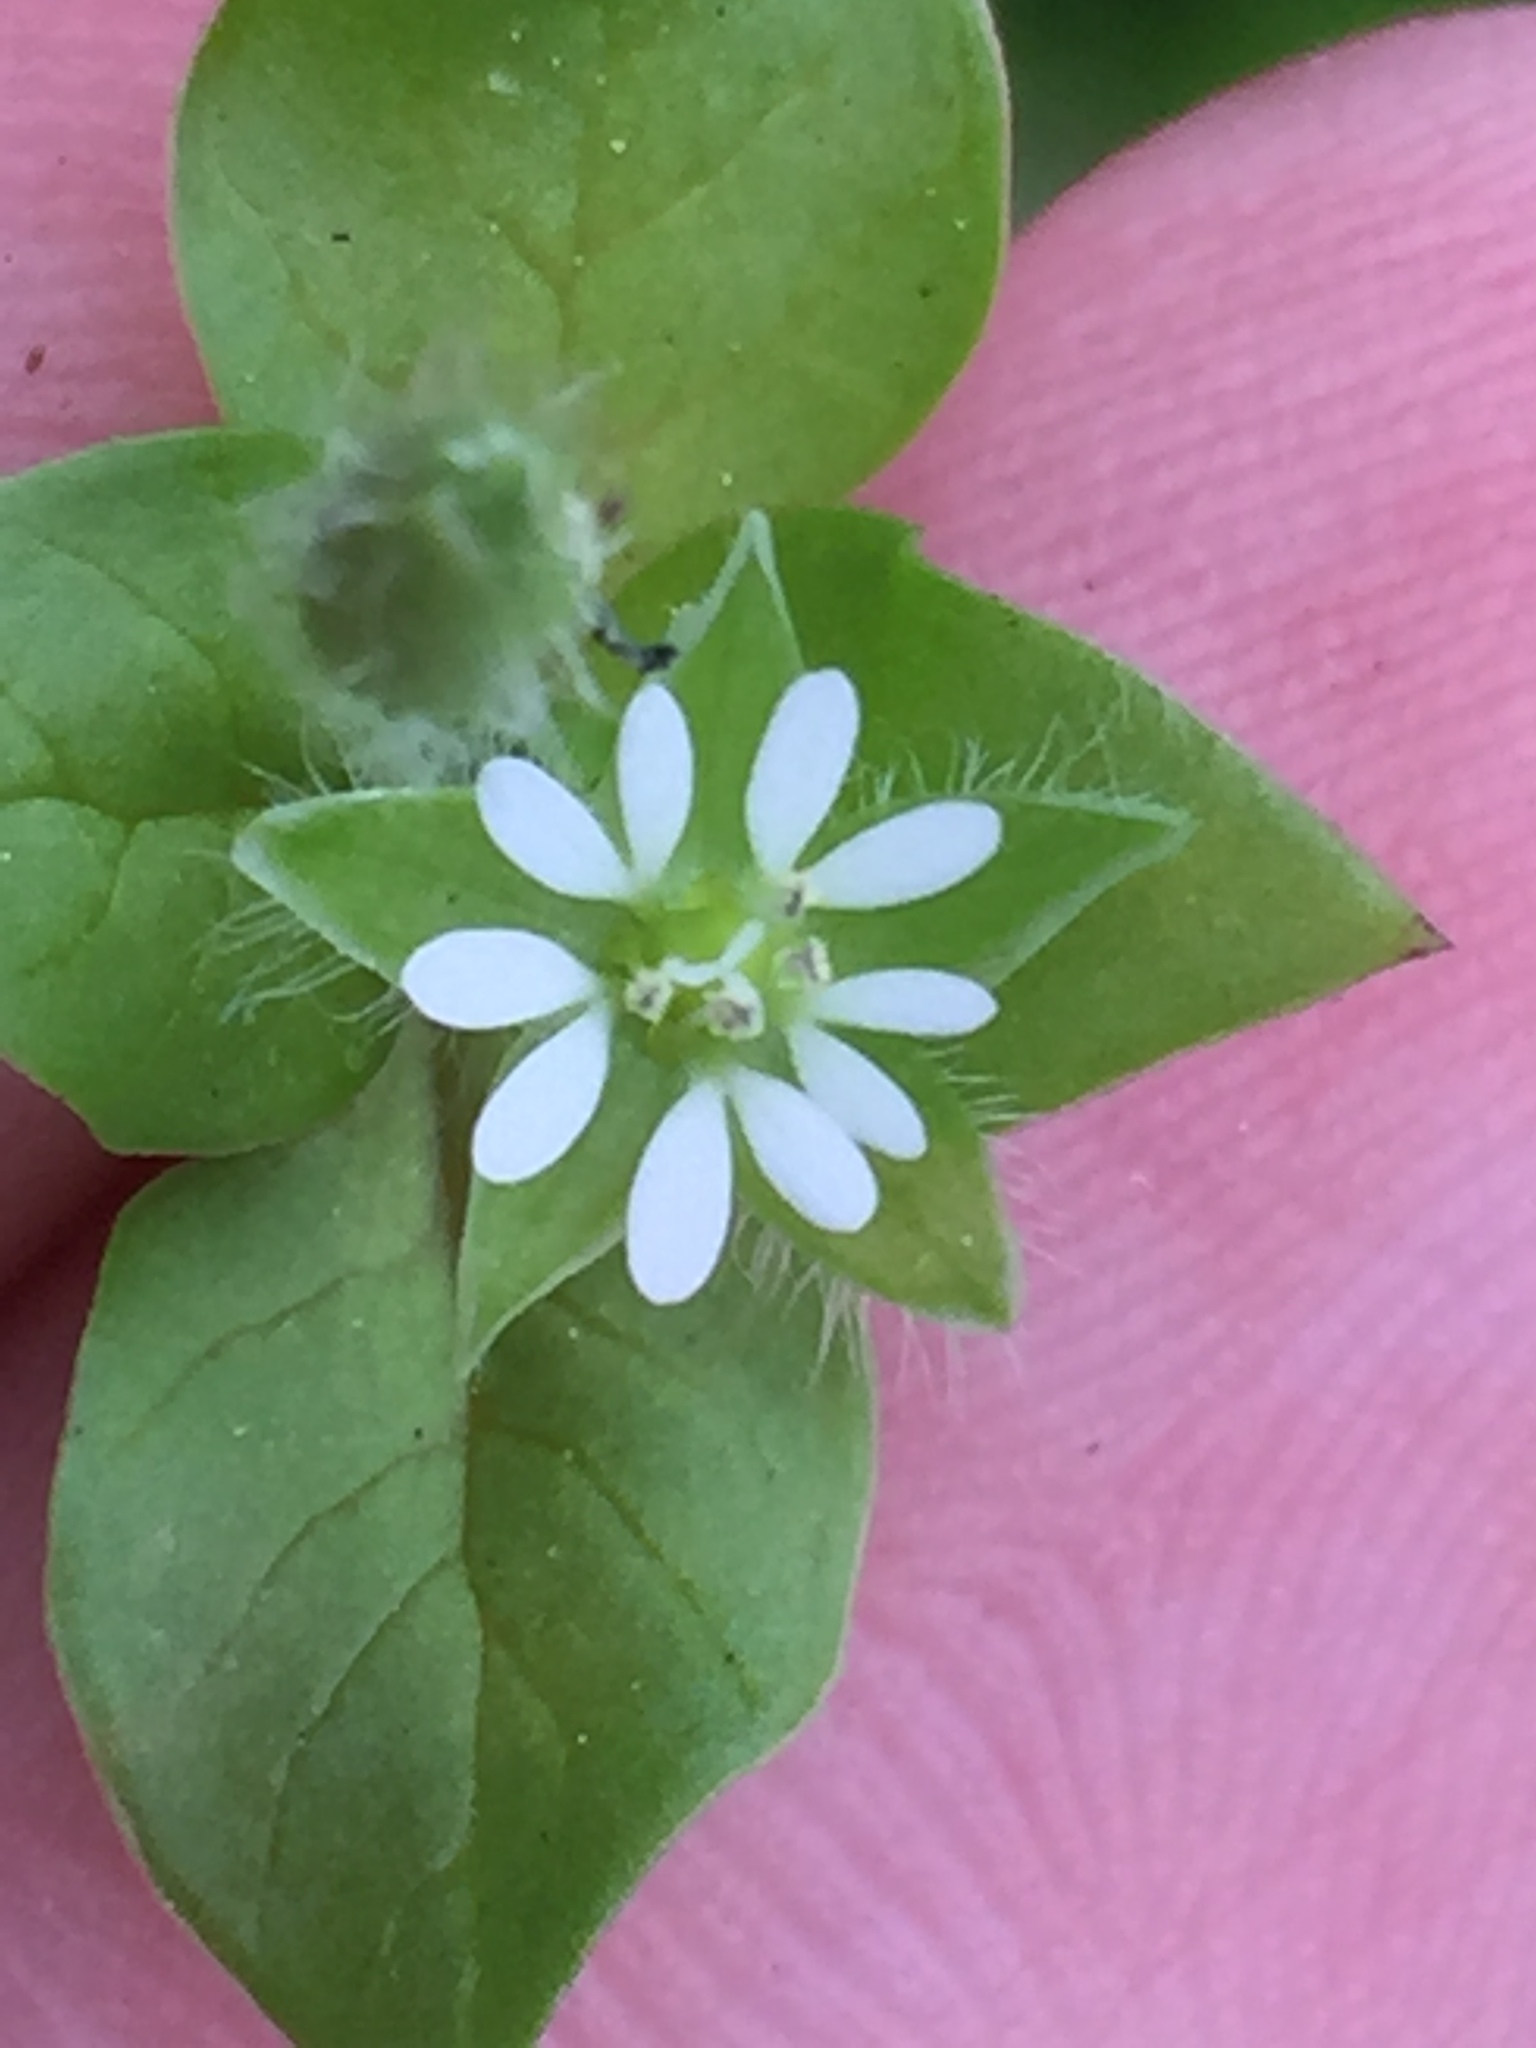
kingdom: Plantae
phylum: Tracheophyta
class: Magnoliopsida
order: Caryophyllales
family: Caryophyllaceae
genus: Stellaria
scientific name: Stellaria media
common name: Common chickweed
